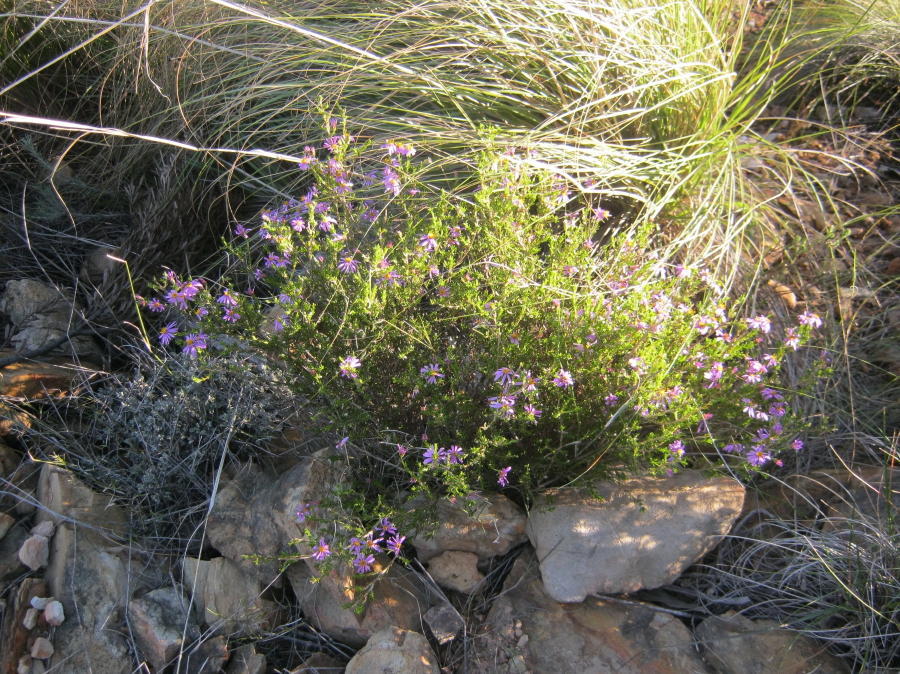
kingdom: Plantae
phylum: Tracheophyta
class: Magnoliopsida
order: Asterales
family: Asteraceae
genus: Felicia
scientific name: Felicia filifolia
